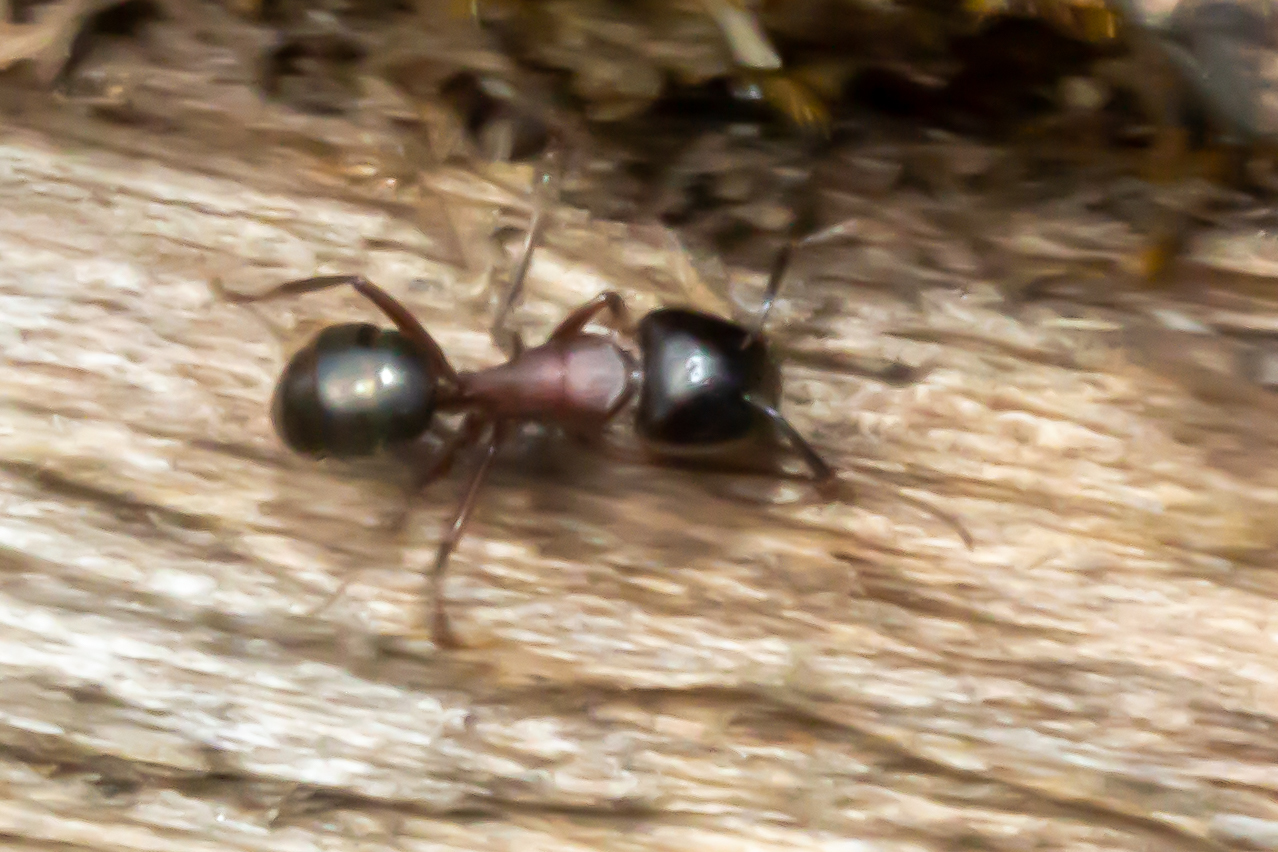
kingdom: Animalia
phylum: Arthropoda
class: Insecta
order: Hymenoptera
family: Formicidae
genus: Camponotus
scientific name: Camponotus novaeboracensis
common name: New york carpenter ant
